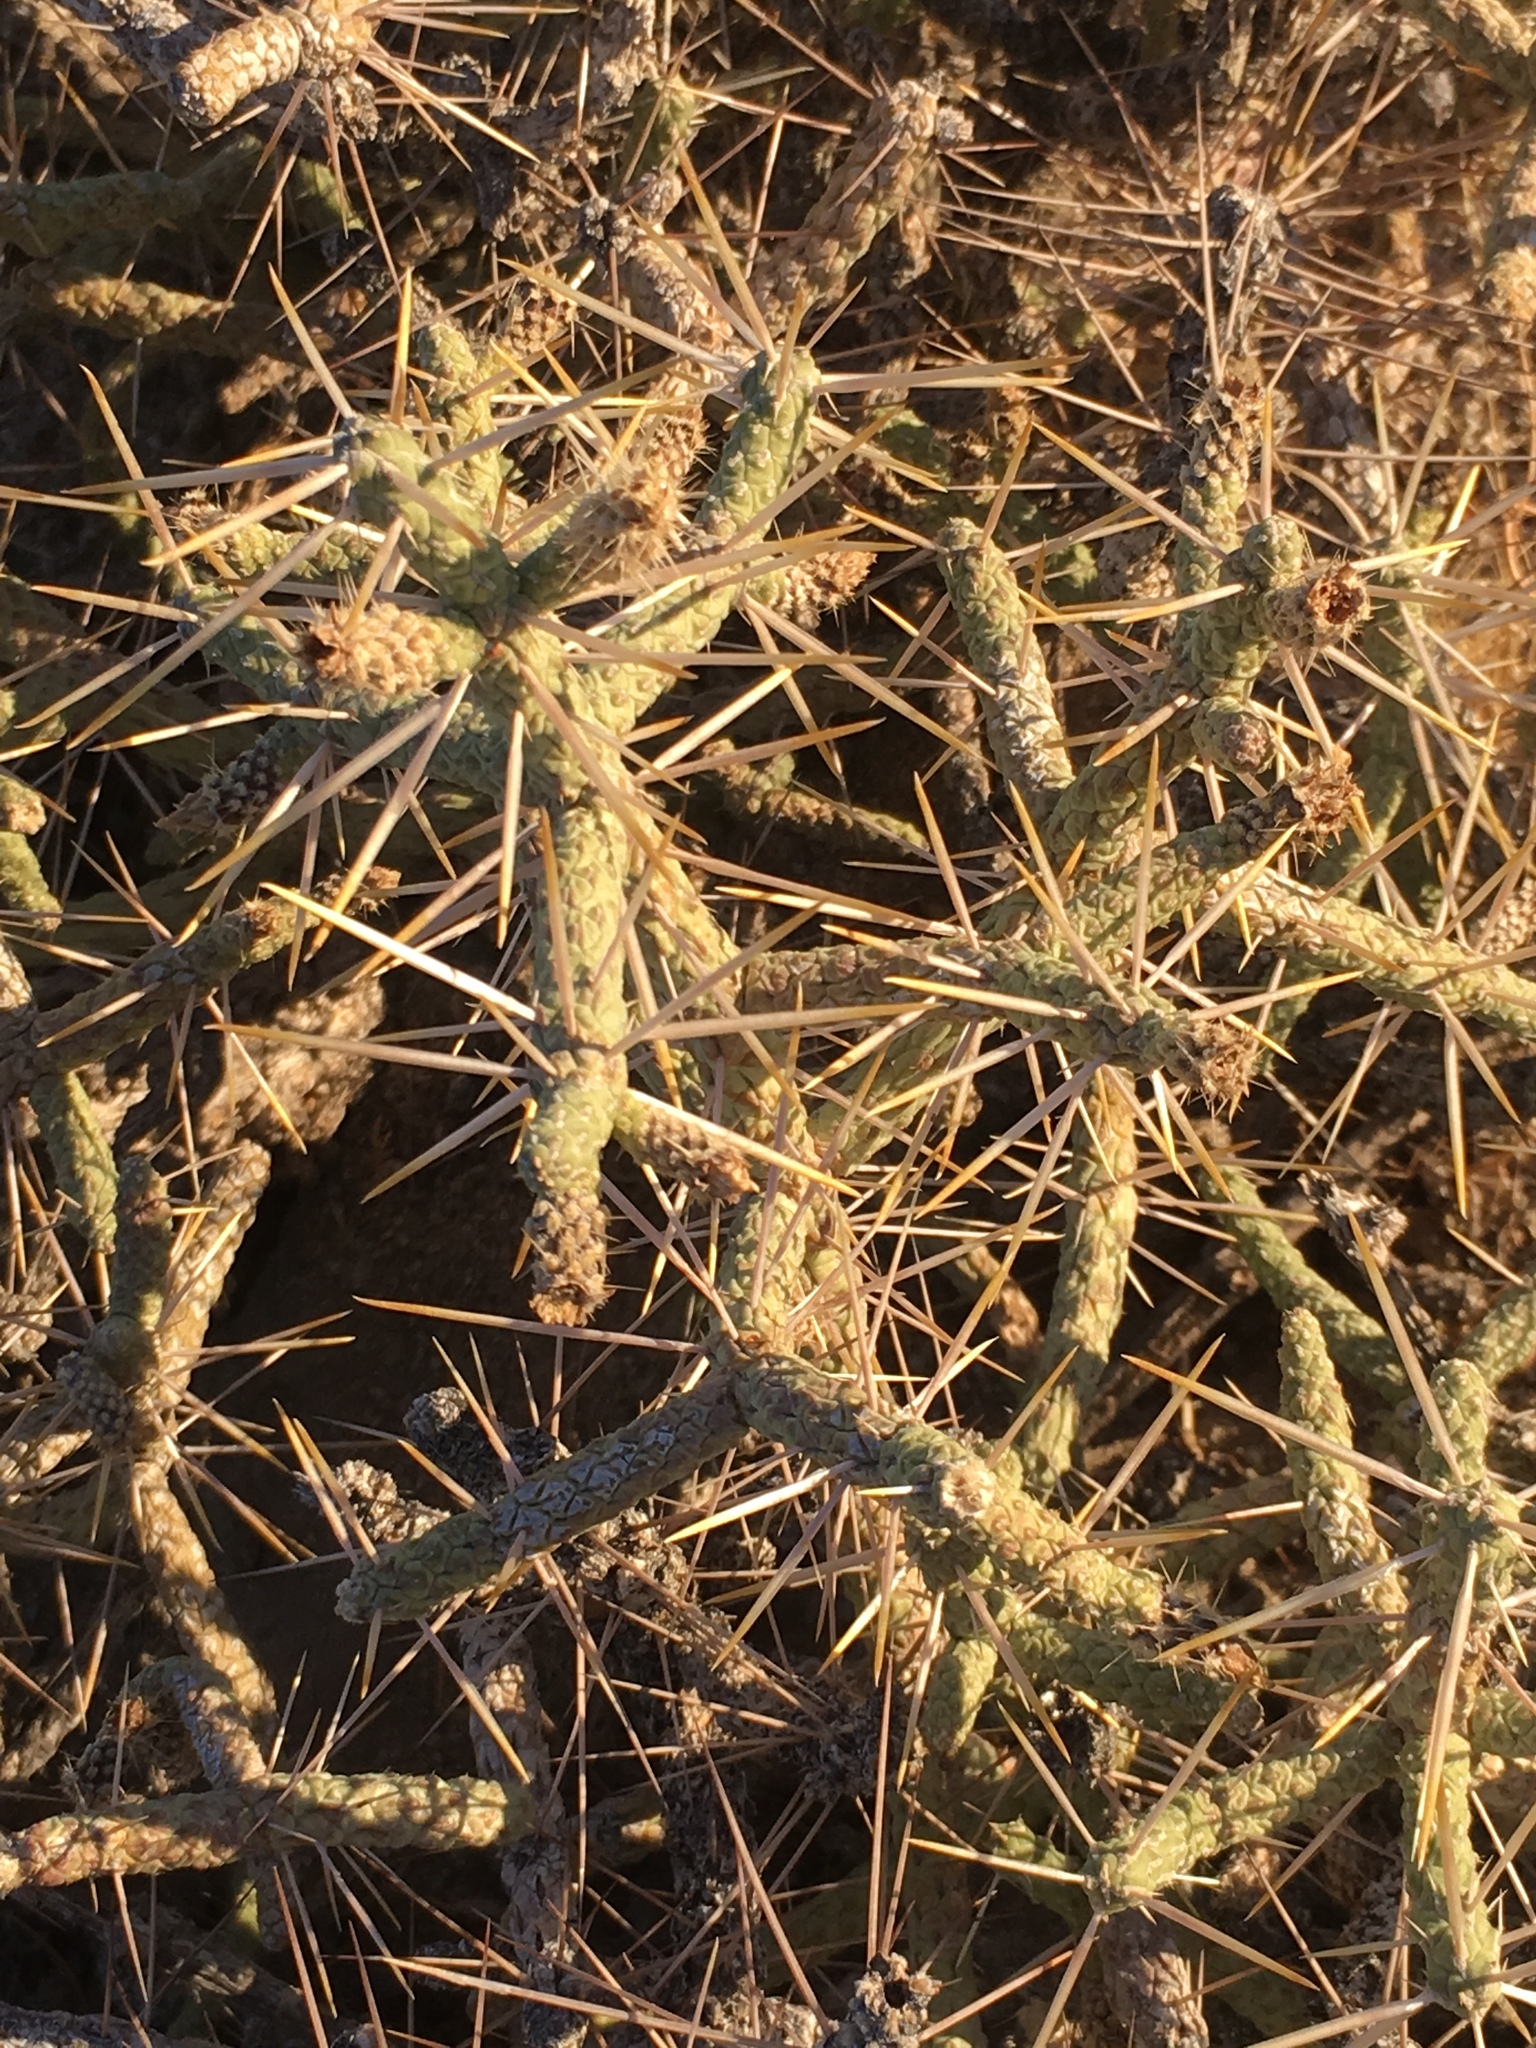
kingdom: Plantae
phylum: Tracheophyta
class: Magnoliopsida
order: Caryophyllales
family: Cactaceae
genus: Cylindropuntia
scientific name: Cylindropuntia ramosissima
